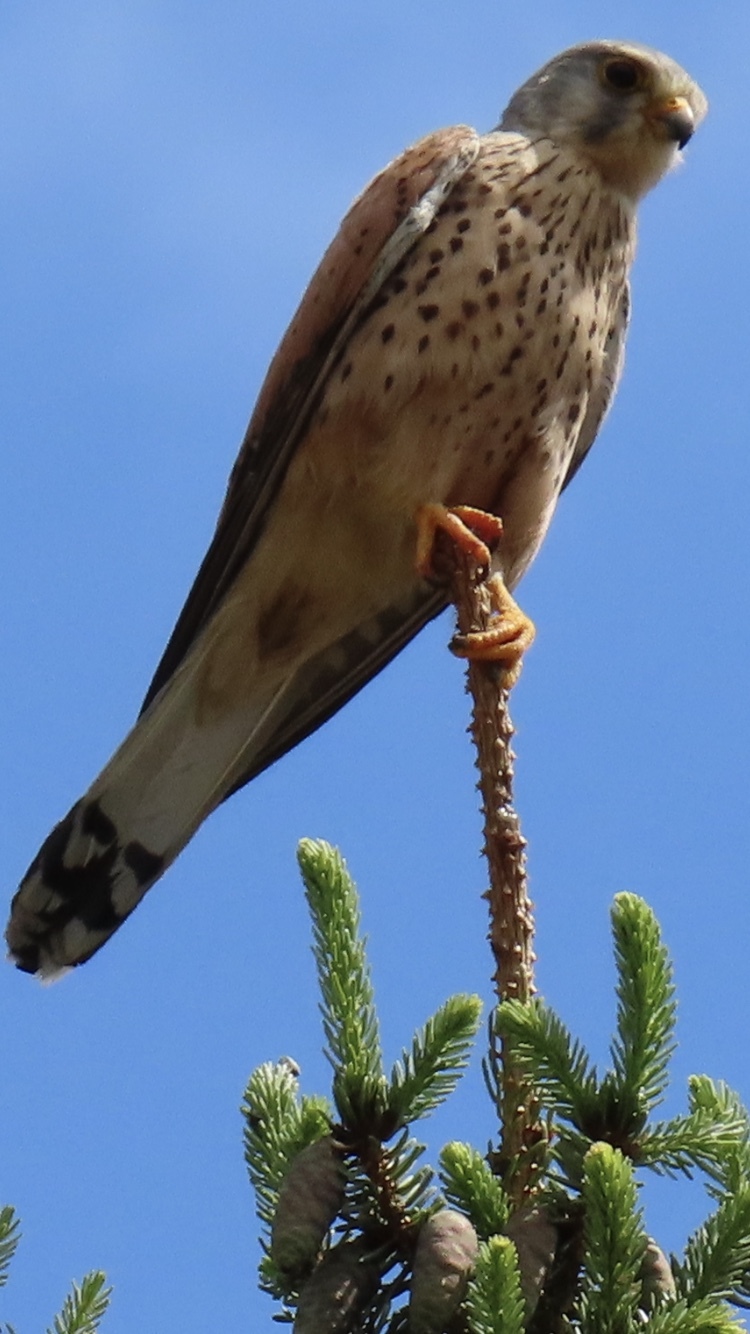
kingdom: Animalia
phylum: Chordata
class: Aves
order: Falconiformes
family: Falconidae
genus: Falco
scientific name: Falco tinnunculus
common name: Common kestrel
